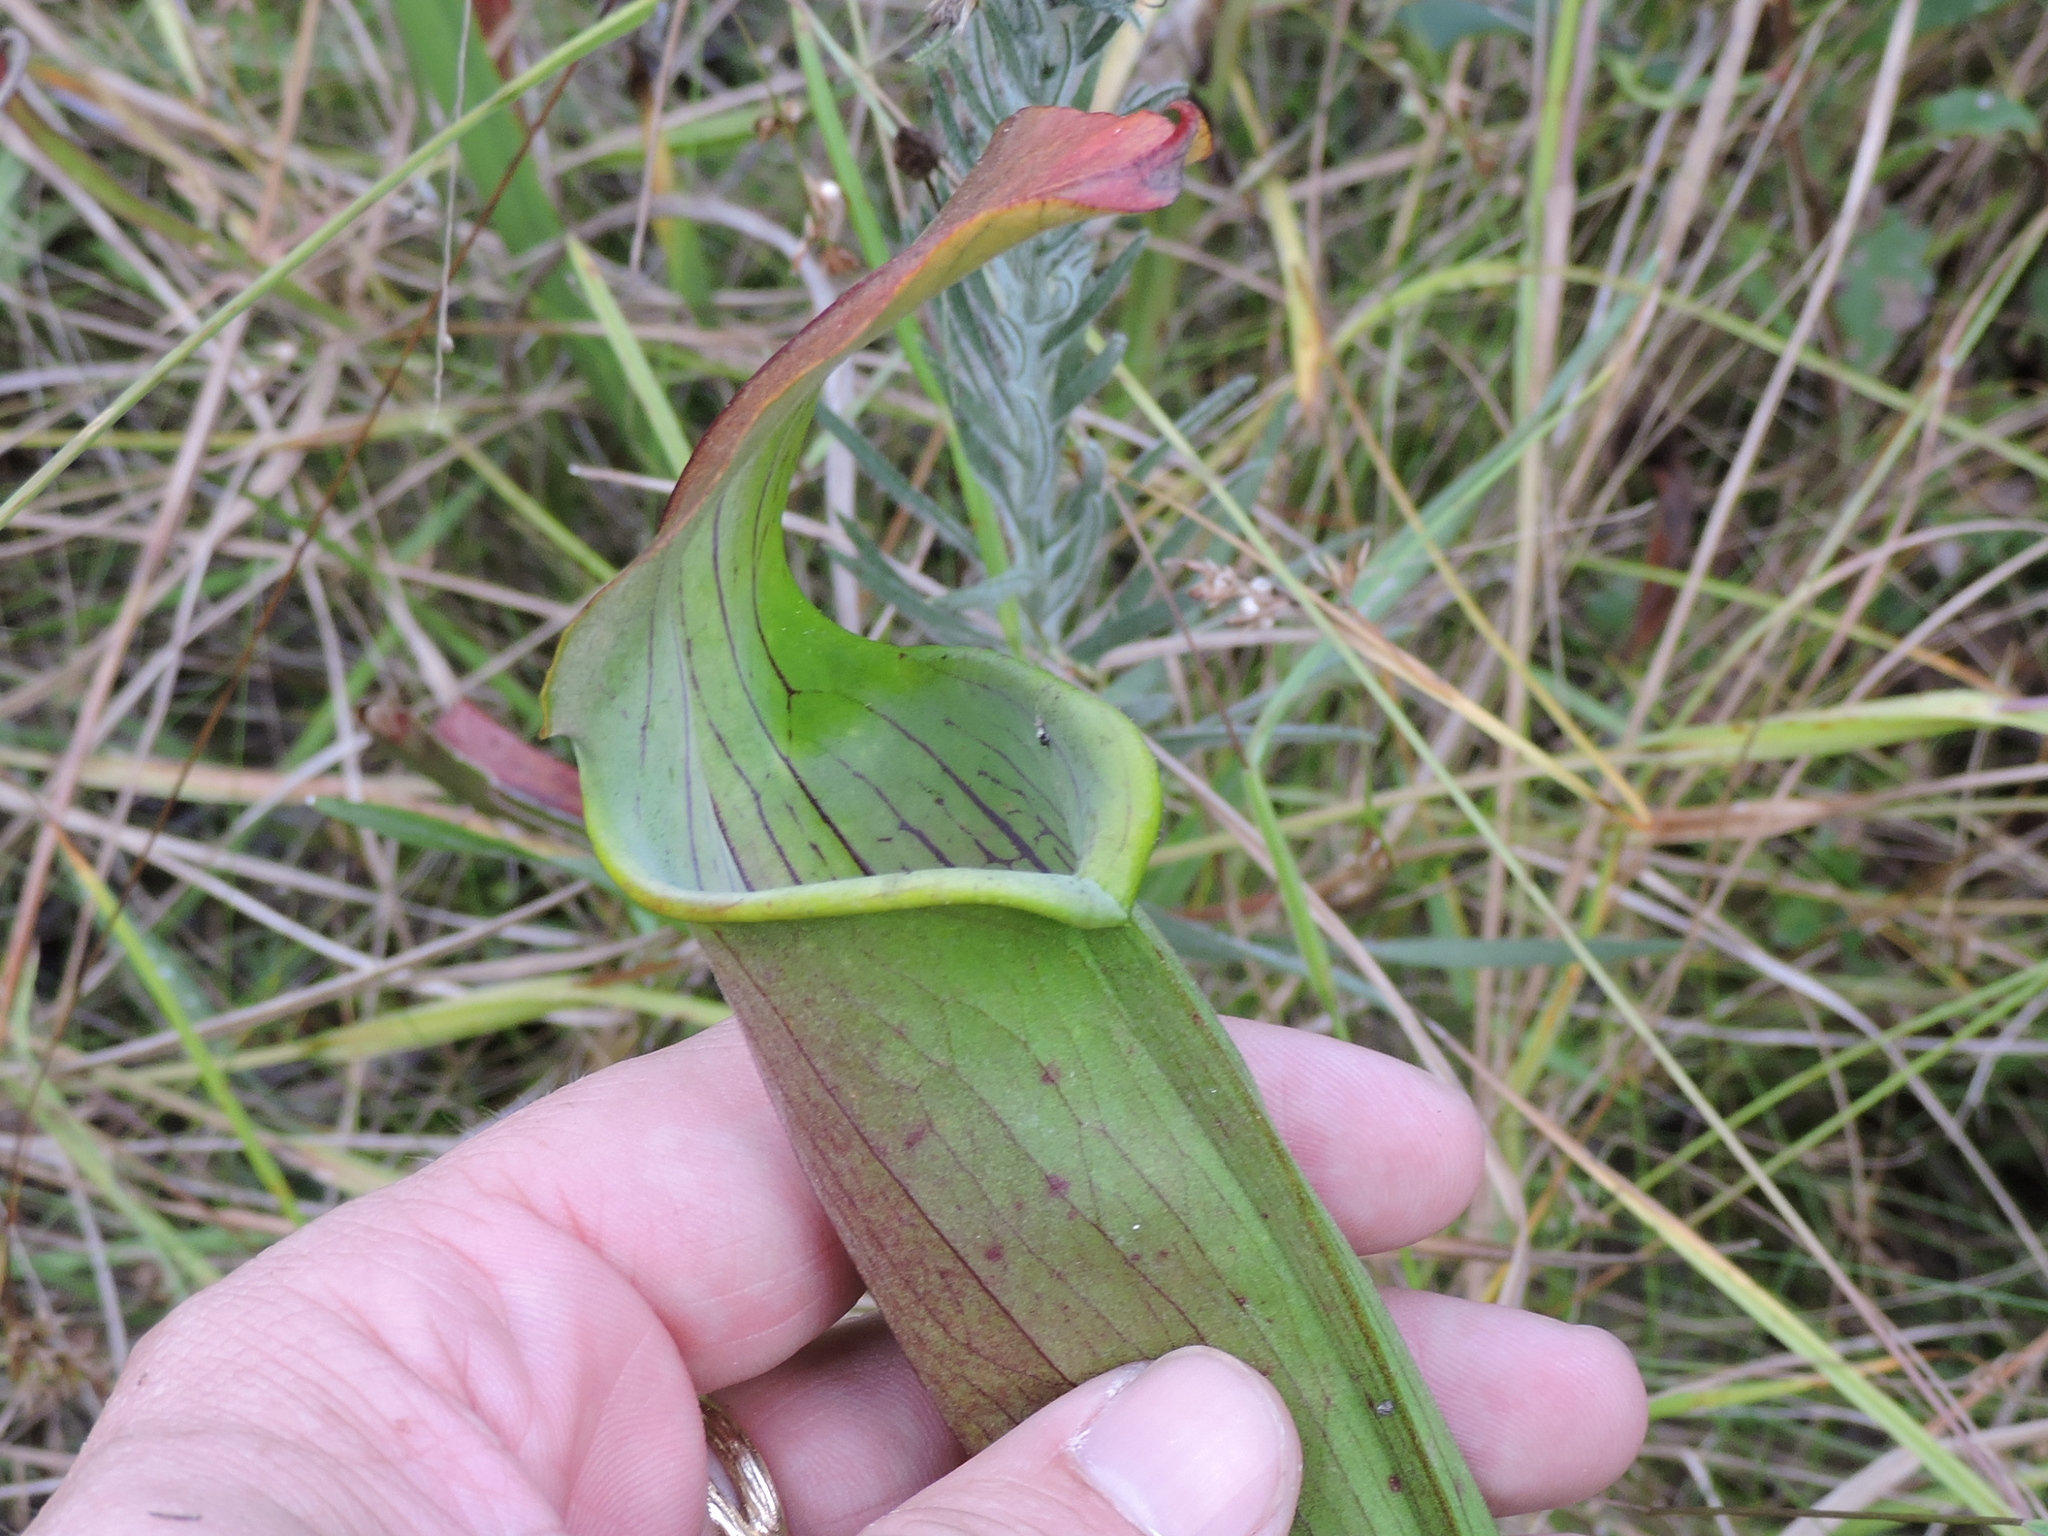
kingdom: Plantae
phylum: Tracheophyta
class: Magnoliopsida
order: Ericales
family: Sarraceniaceae
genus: Sarracenia
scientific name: Sarracenia alata
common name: Yellow trumpets
